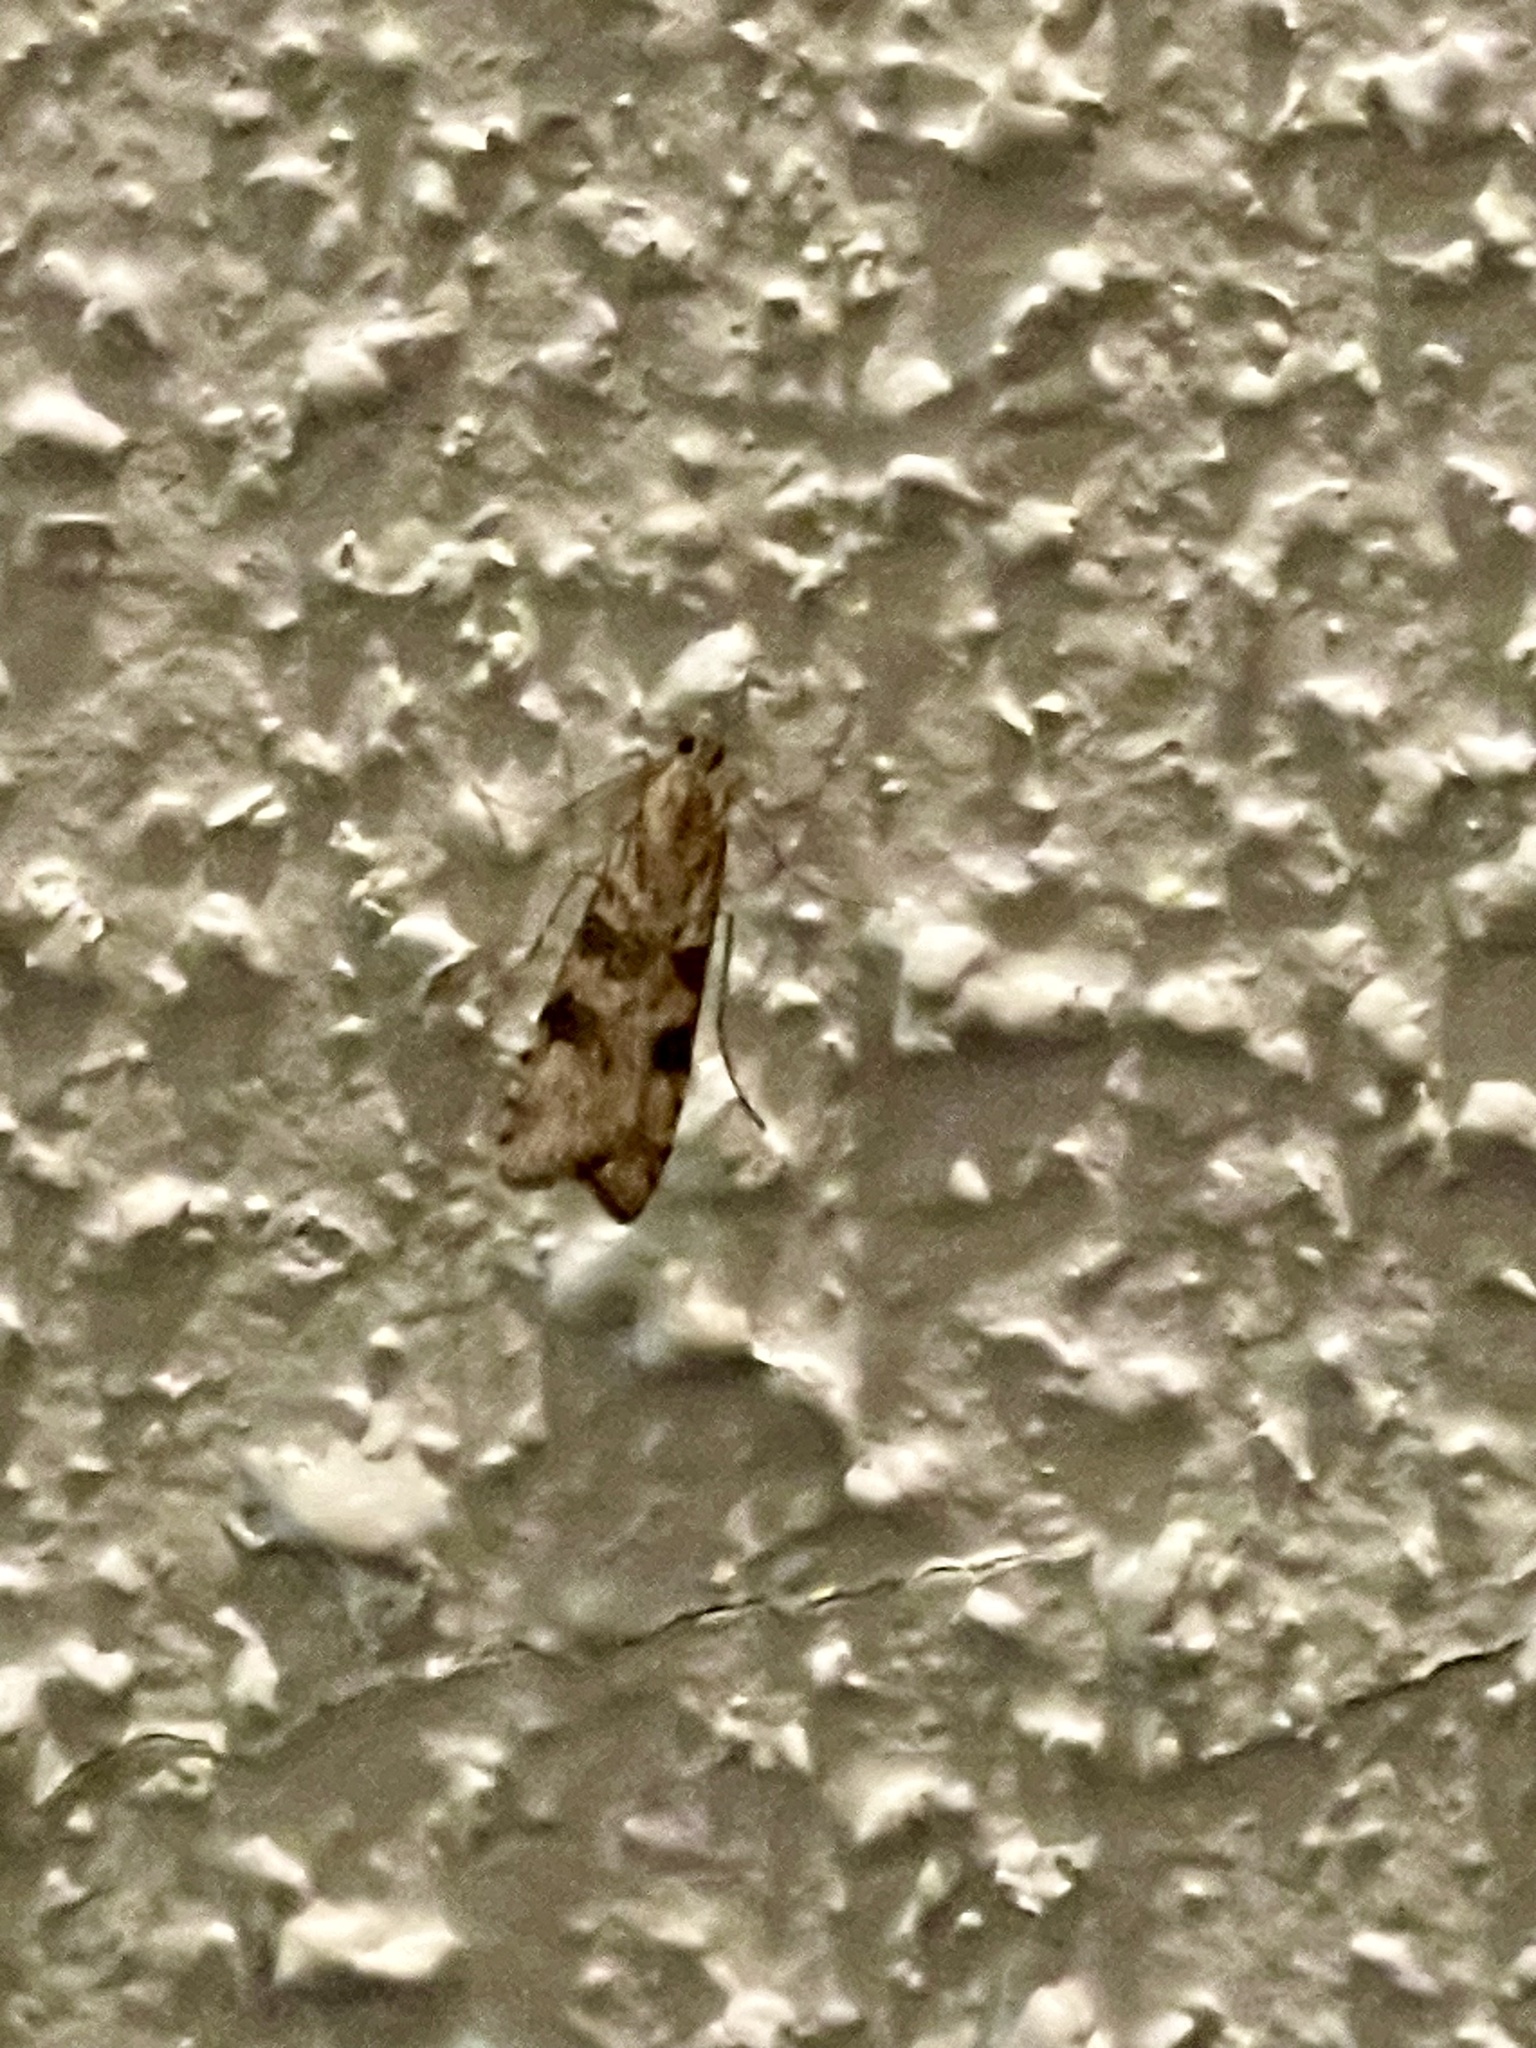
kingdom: Animalia
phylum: Arthropoda
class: Insecta
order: Lepidoptera
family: Crambidae
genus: Nomophila
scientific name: Nomophila nearctica
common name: American rush veneer
